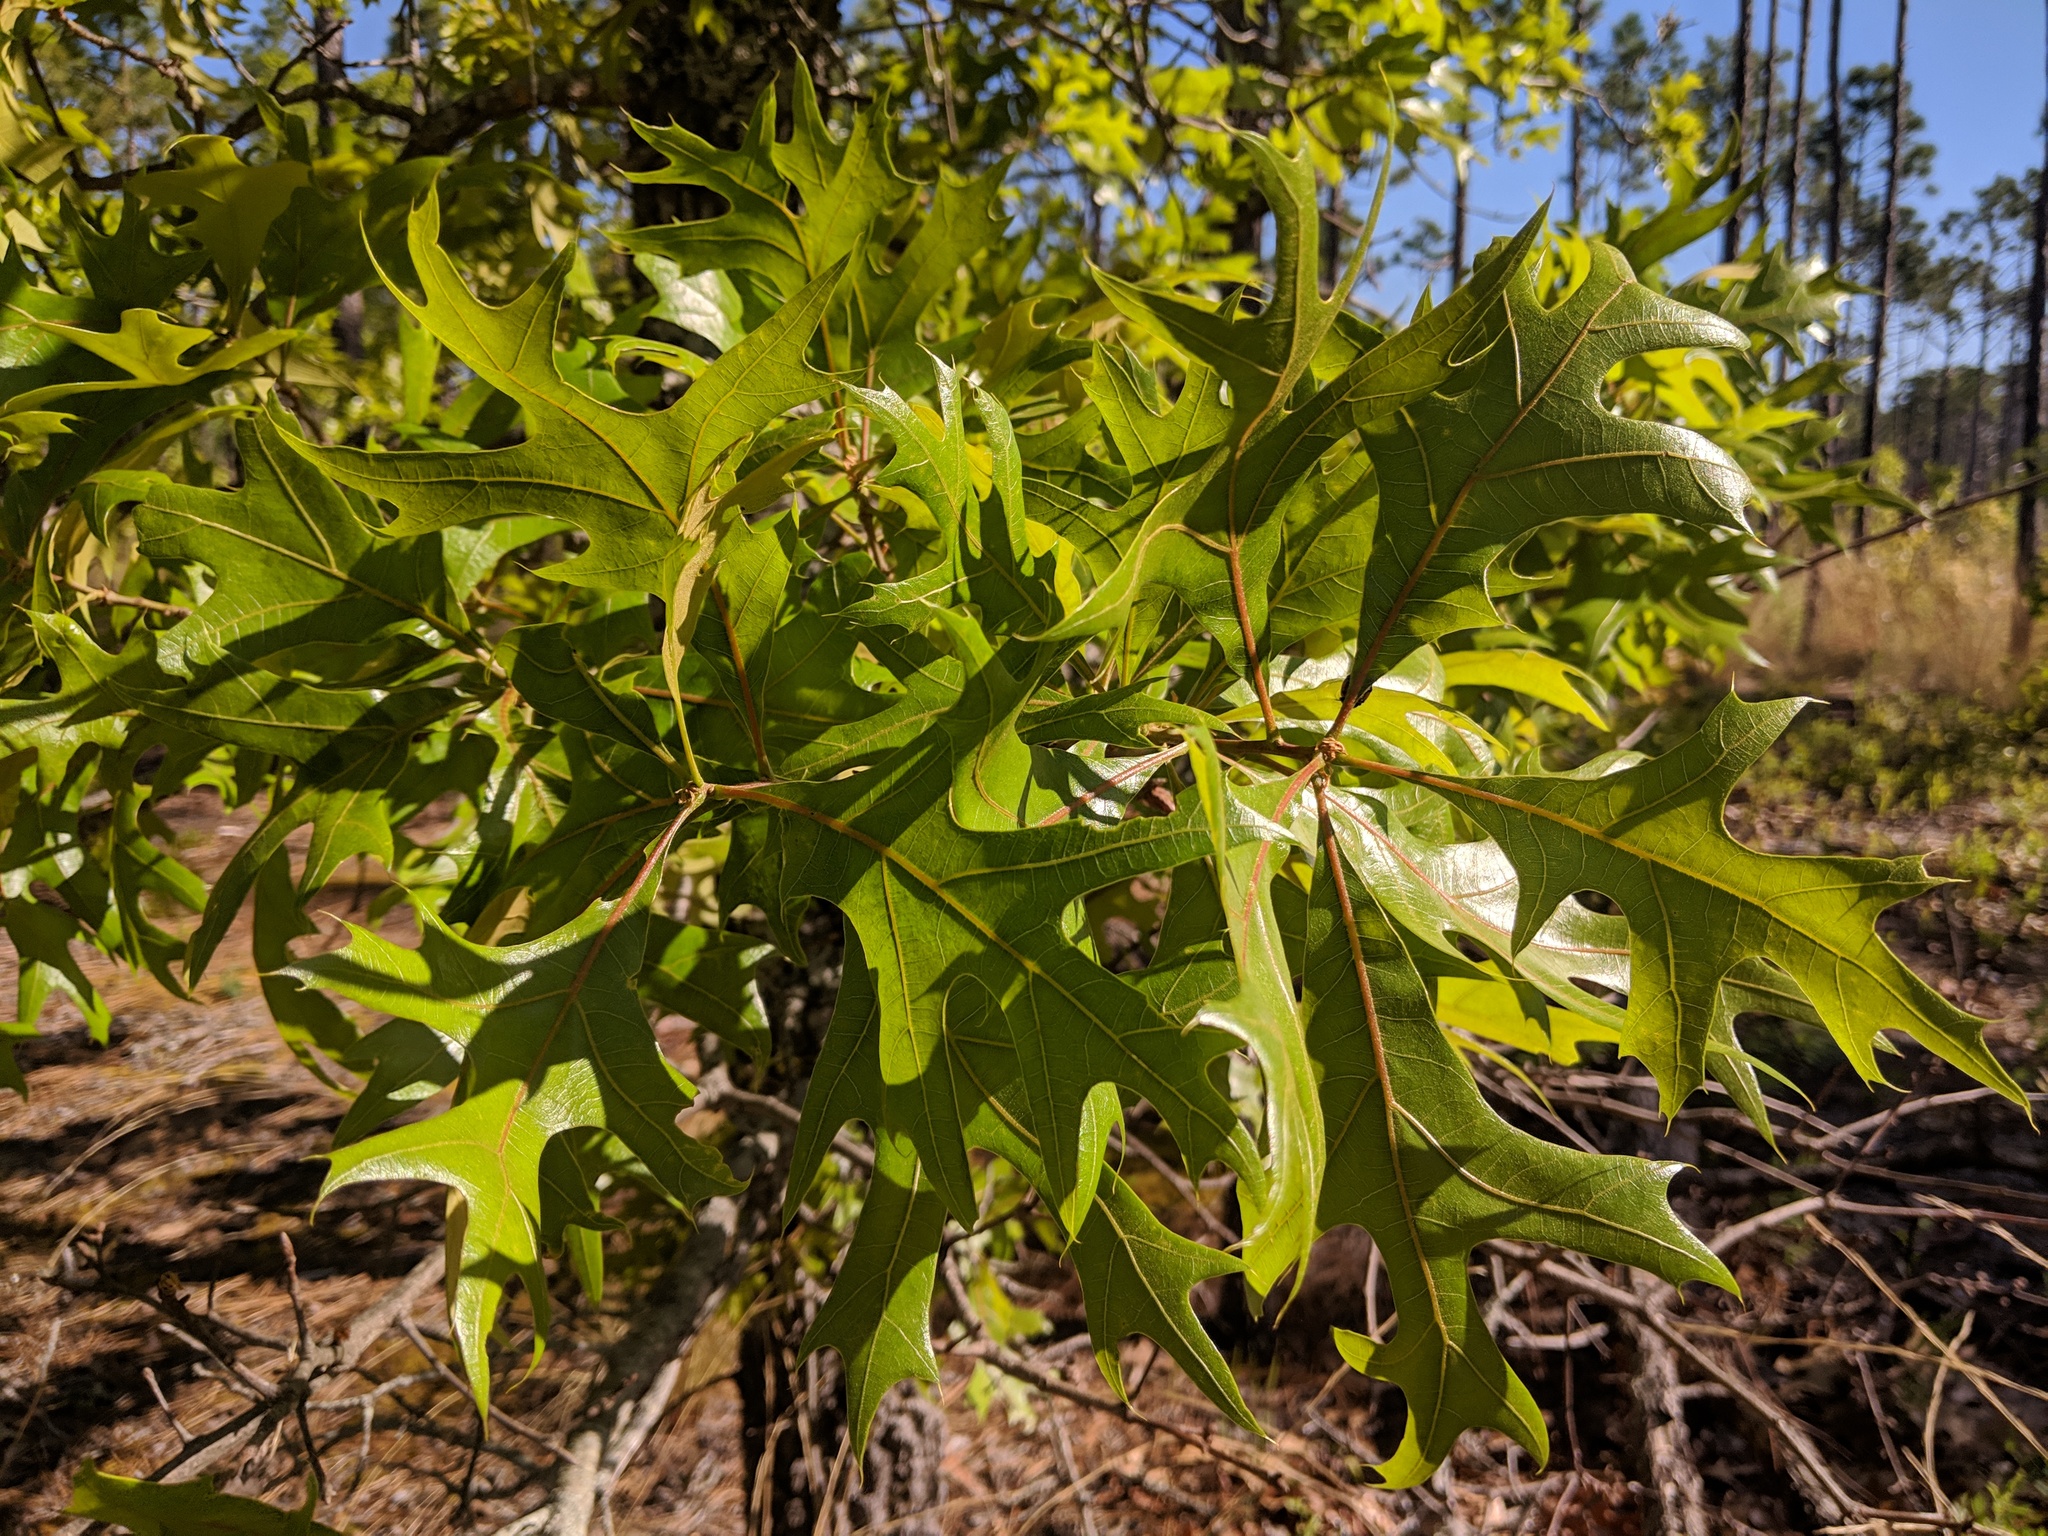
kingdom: Plantae
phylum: Tracheophyta
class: Magnoliopsida
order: Fagales
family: Fagaceae
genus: Quercus
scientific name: Quercus laevis
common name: Turkey oak
